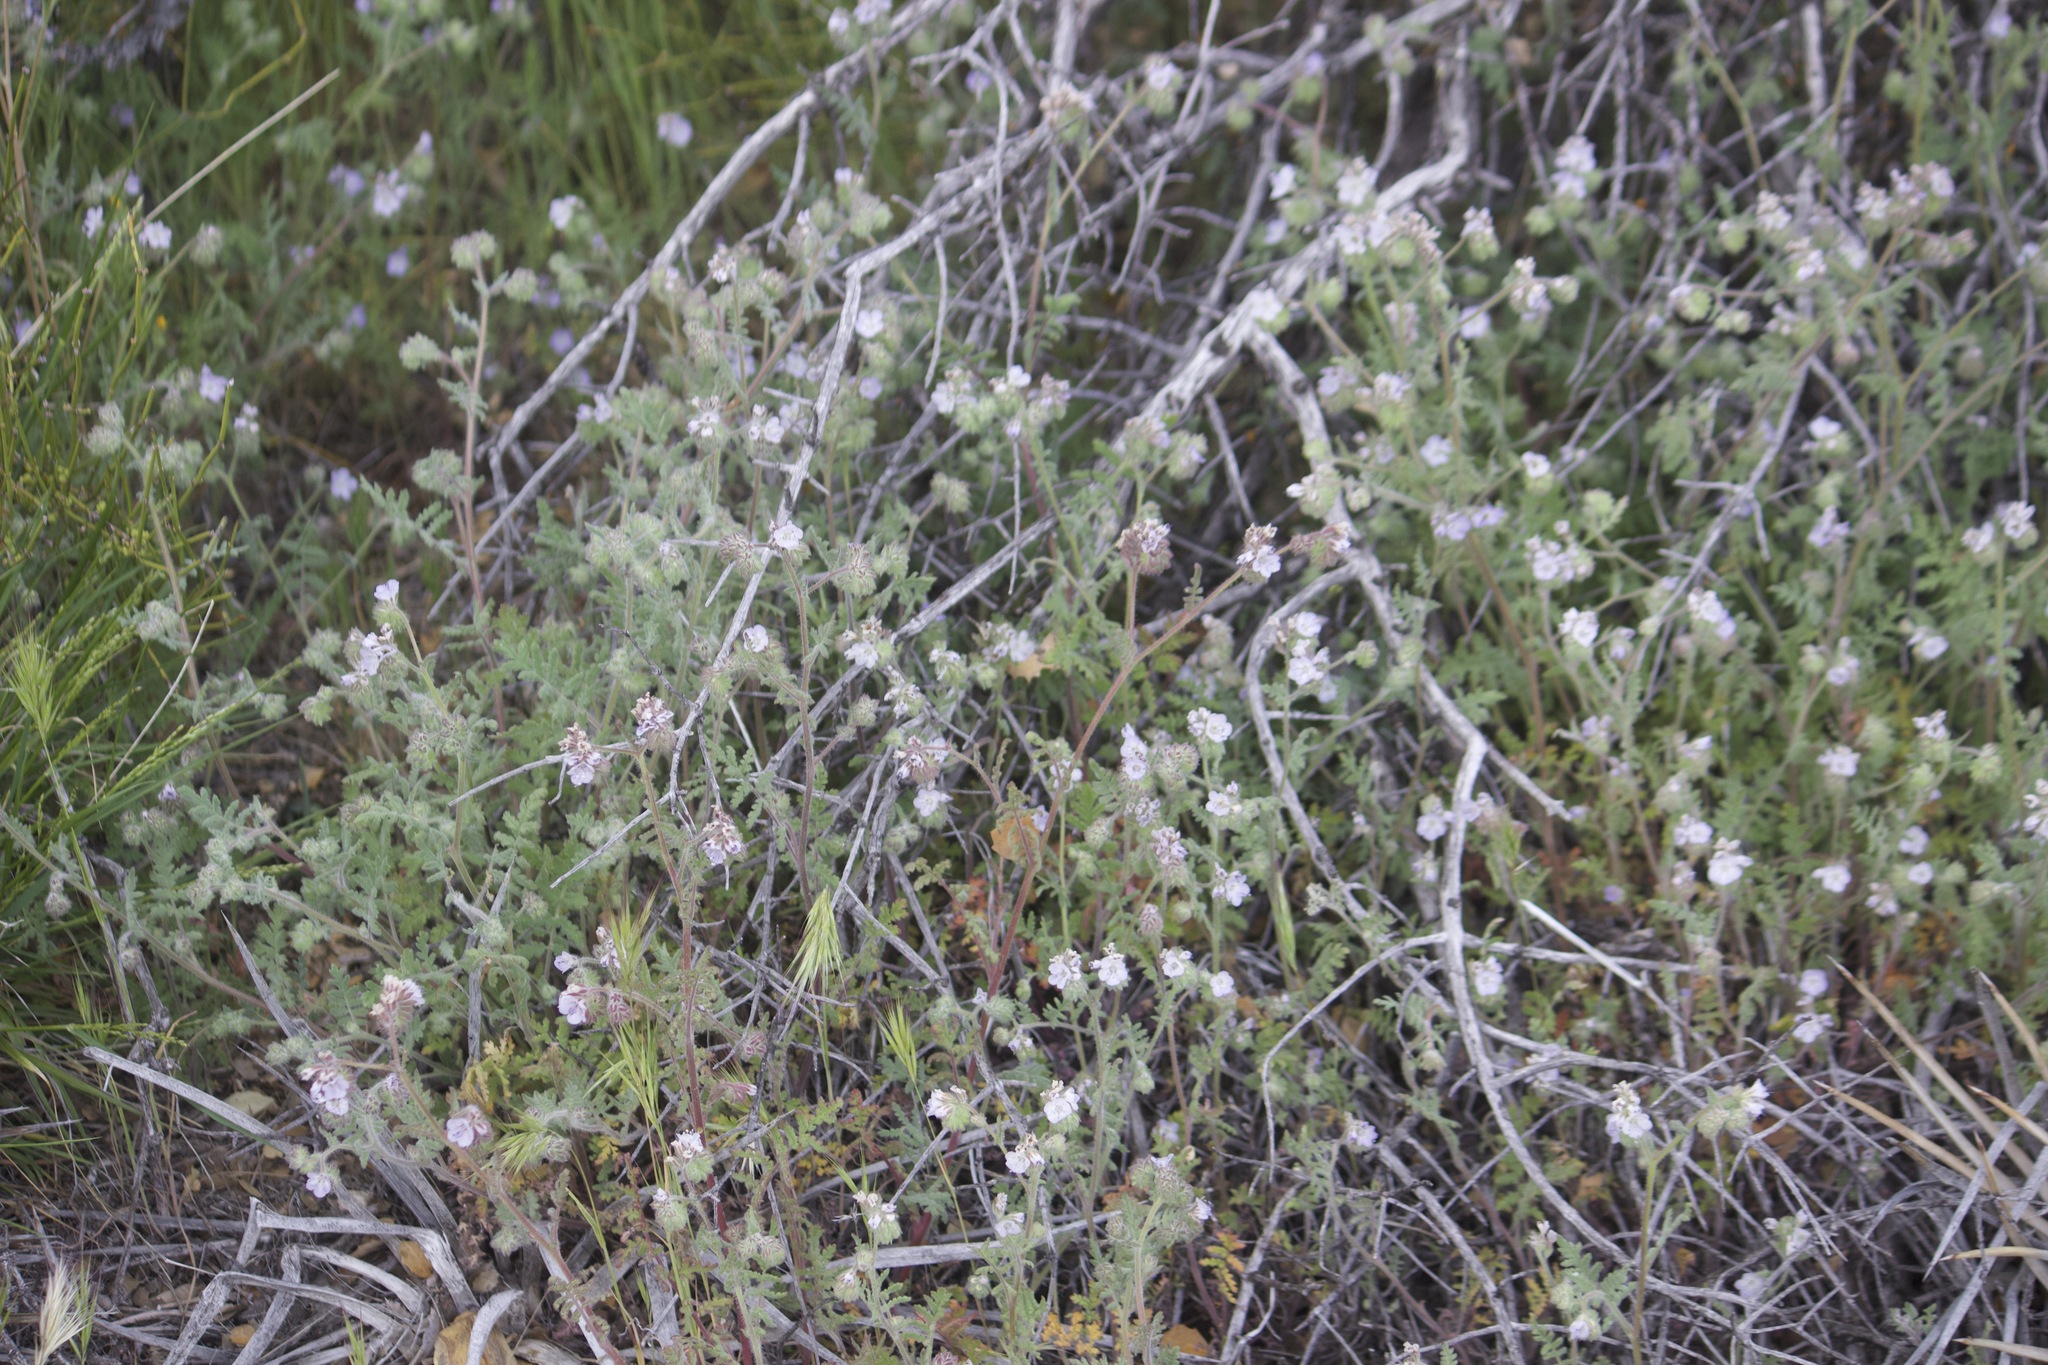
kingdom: Plantae
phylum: Tracheophyta
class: Magnoliopsida
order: Boraginales
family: Hydrophyllaceae
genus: Phacelia
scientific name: Phacelia distans
